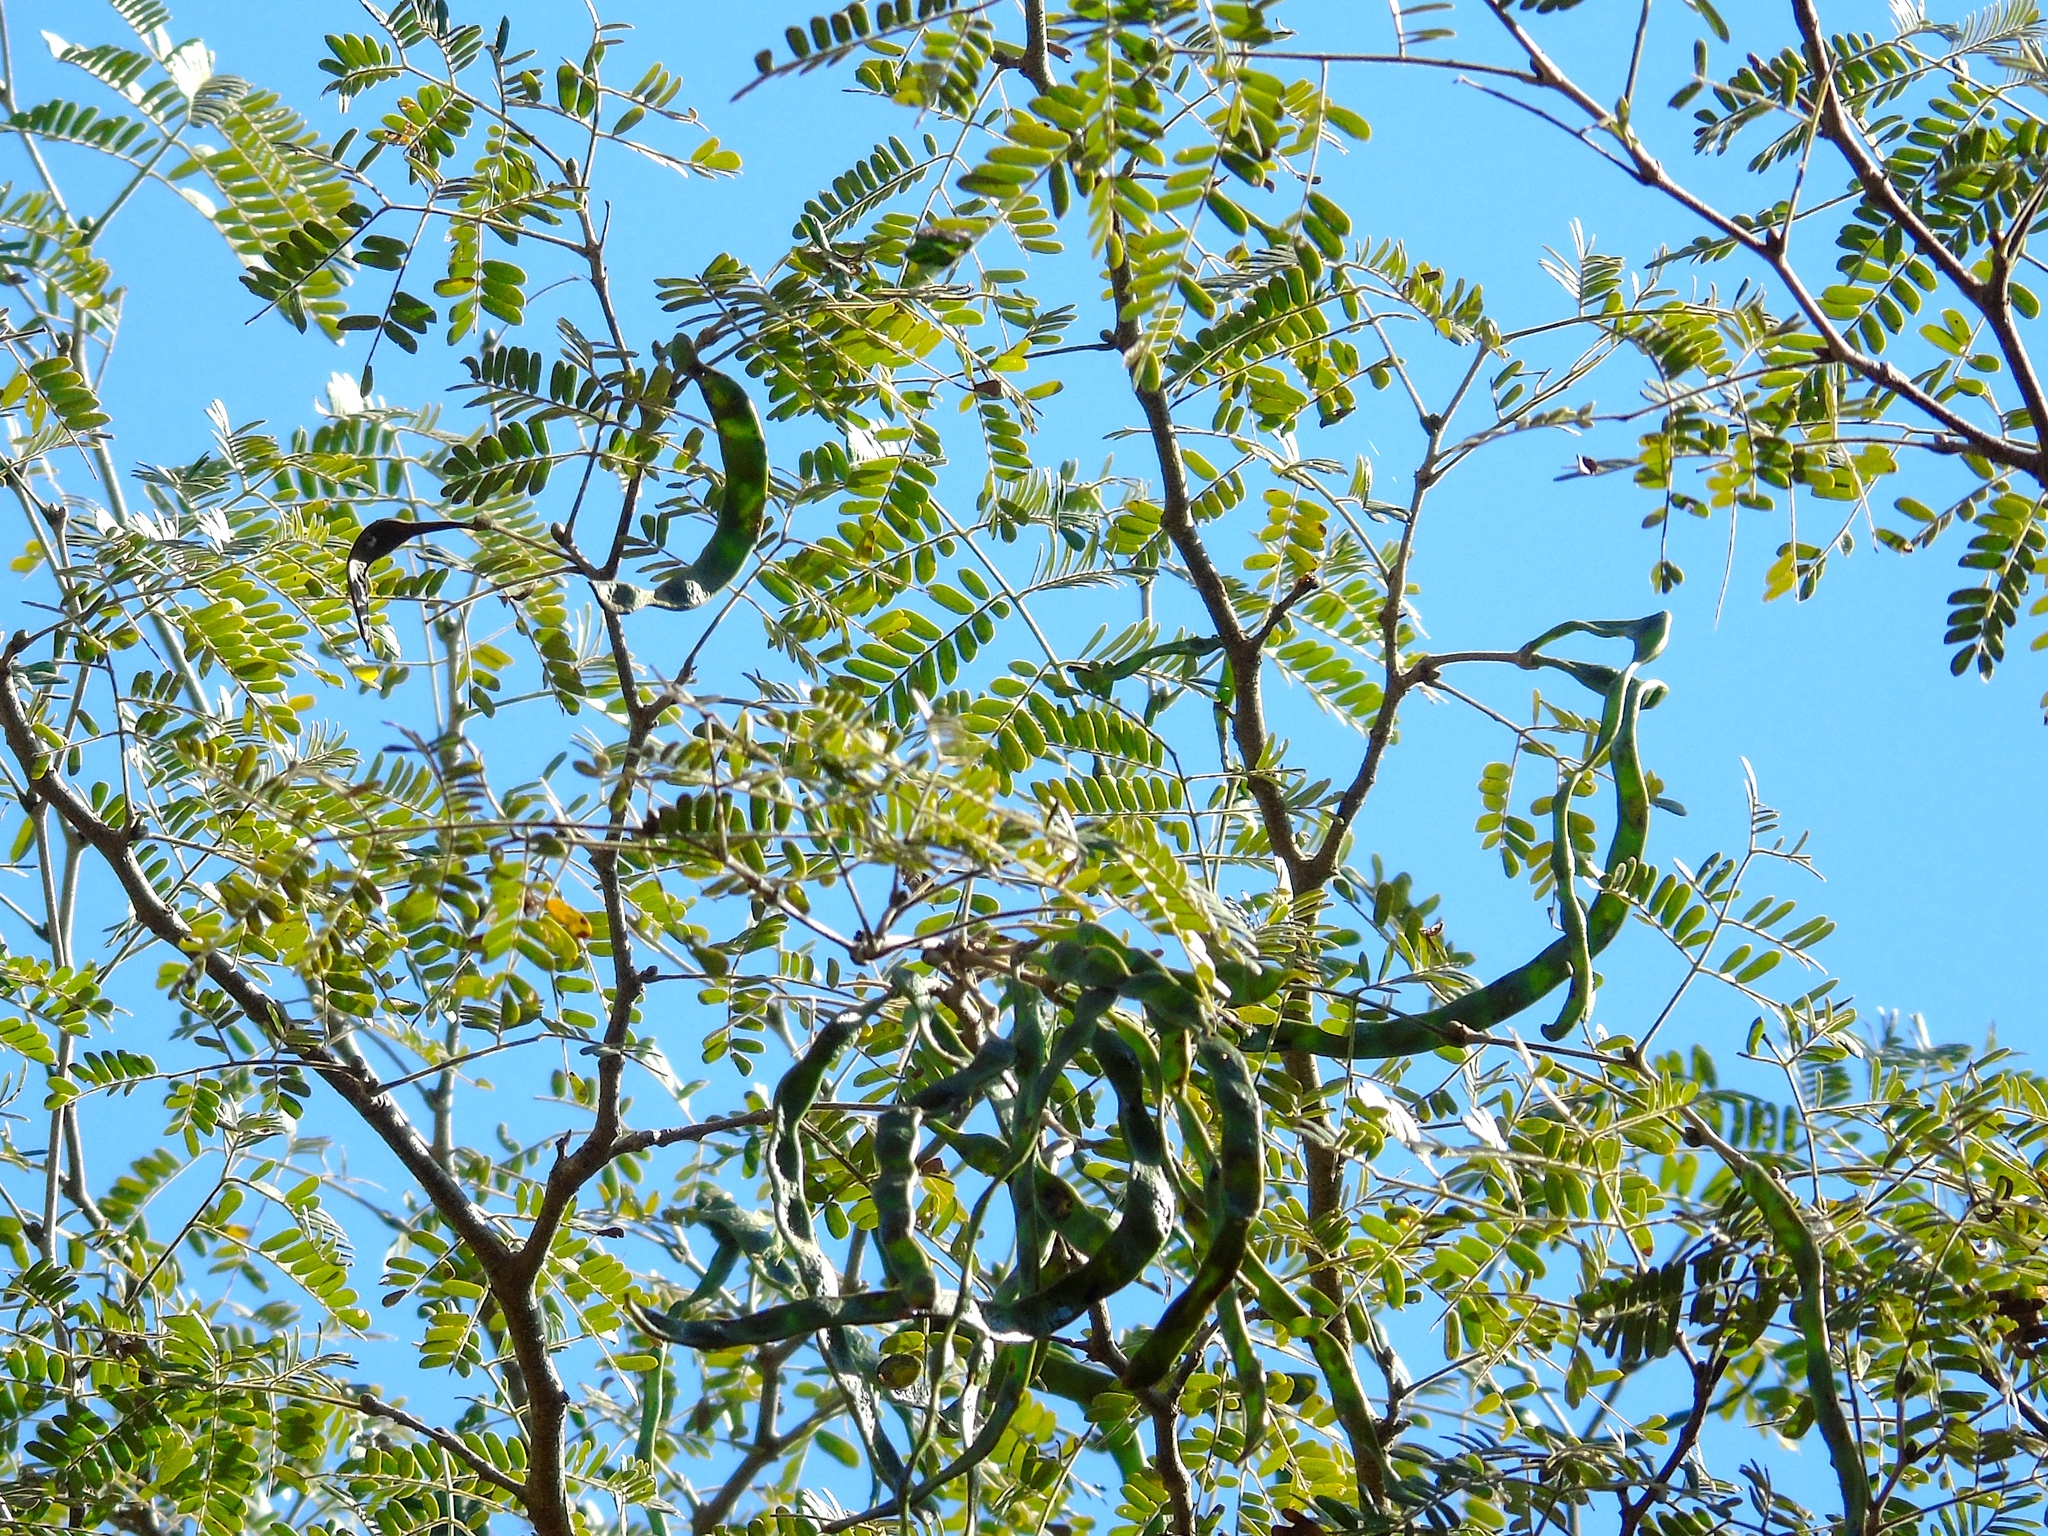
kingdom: Plantae
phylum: Tracheophyta
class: Magnoliopsida
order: Fabales
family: Fabaceae
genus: Chloroleucon
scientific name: Chloroleucon mangense
